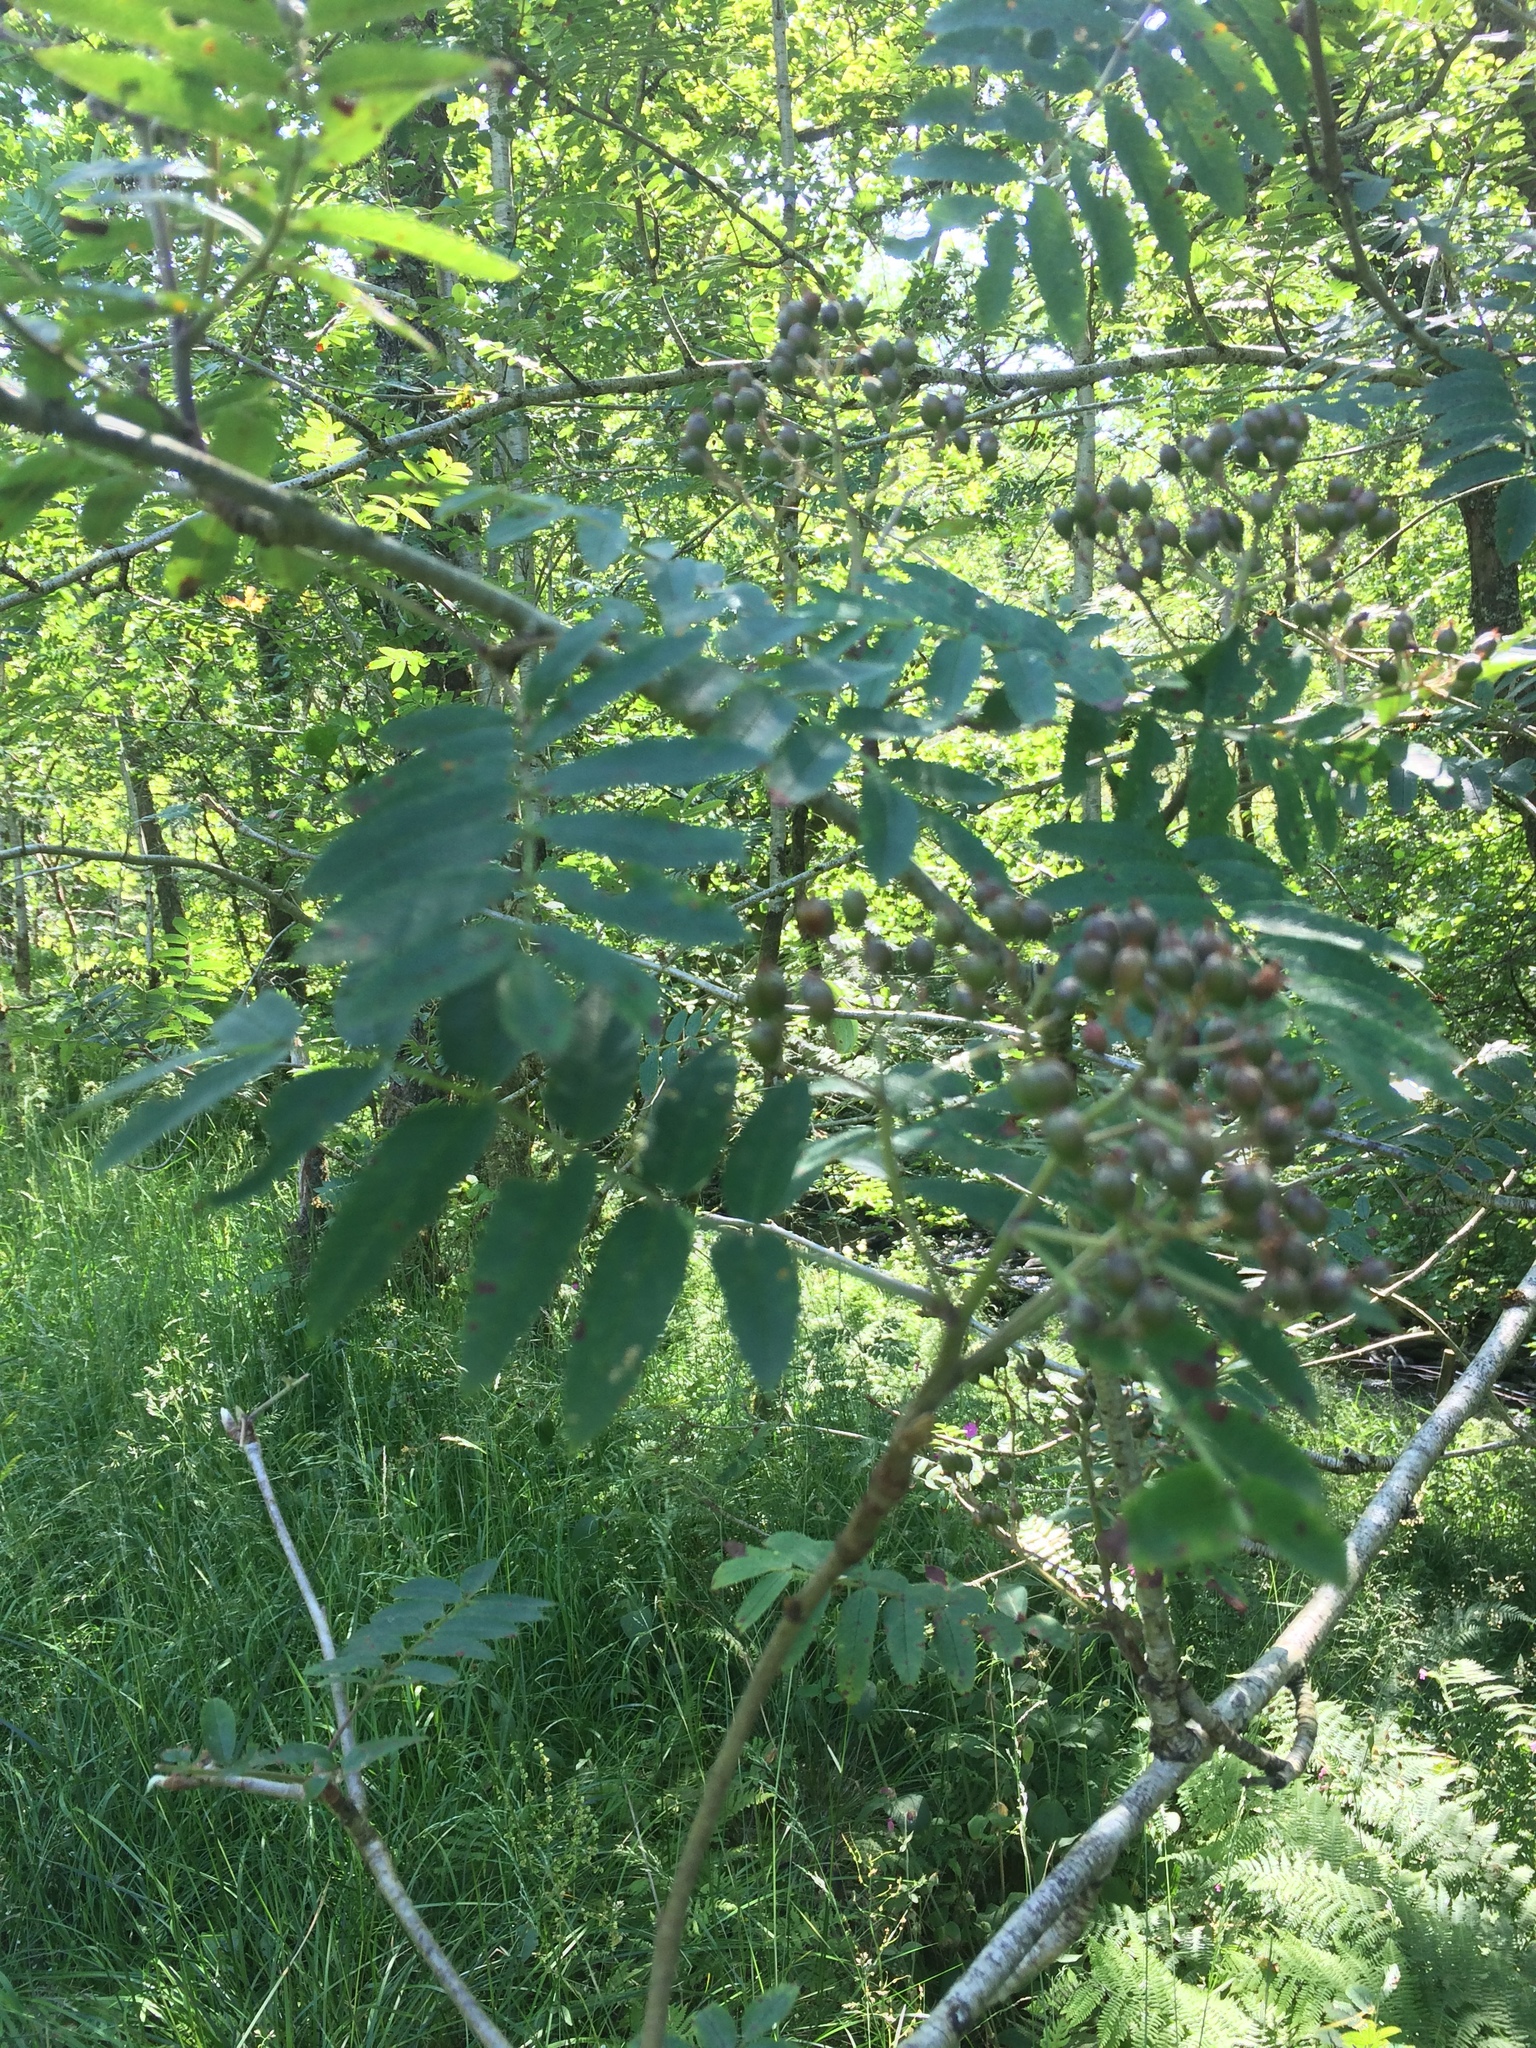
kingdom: Plantae
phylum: Tracheophyta
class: Magnoliopsida
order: Rosales
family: Rosaceae
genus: Sorbus
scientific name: Sorbus aucuparia
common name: Rowan
